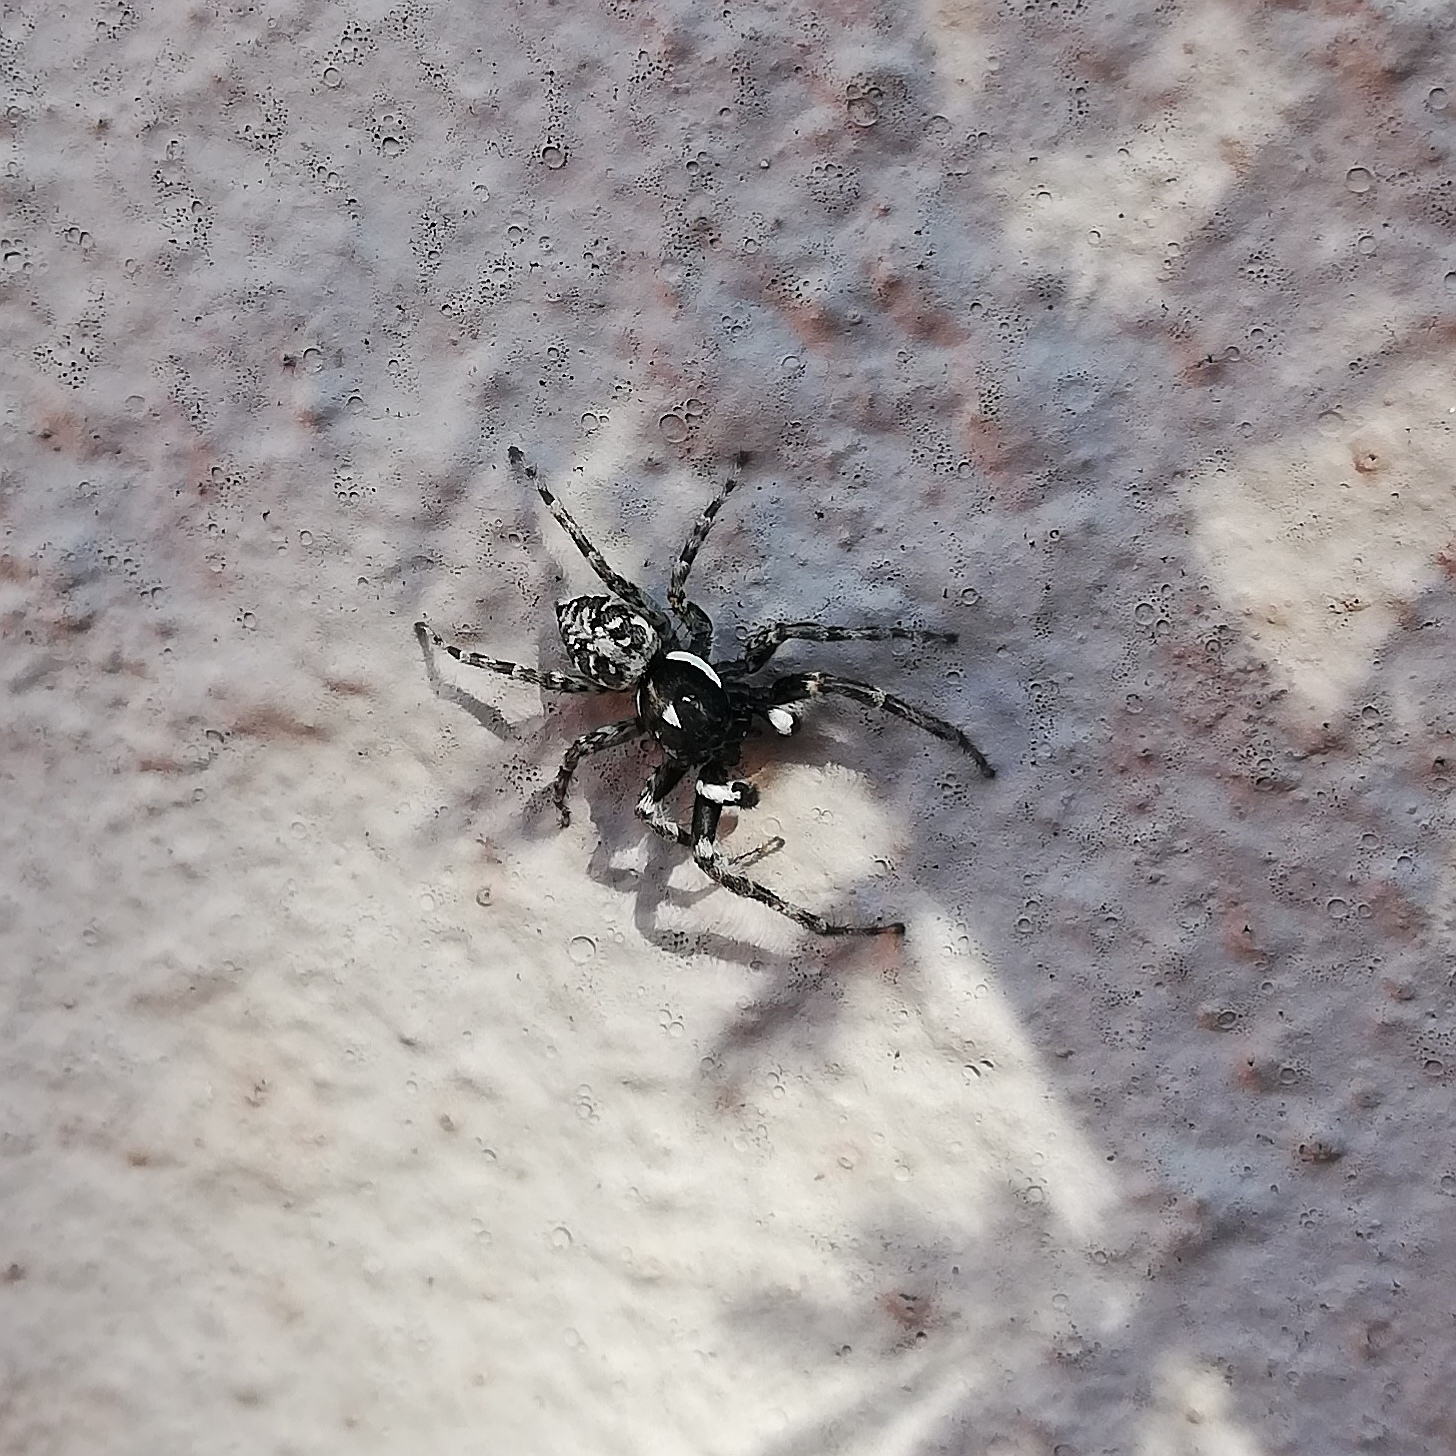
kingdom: Animalia
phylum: Arthropoda
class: Arachnida
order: Araneae
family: Salticidae
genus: Menemerus
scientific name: Menemerus semilimbatus
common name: Jumping spider
